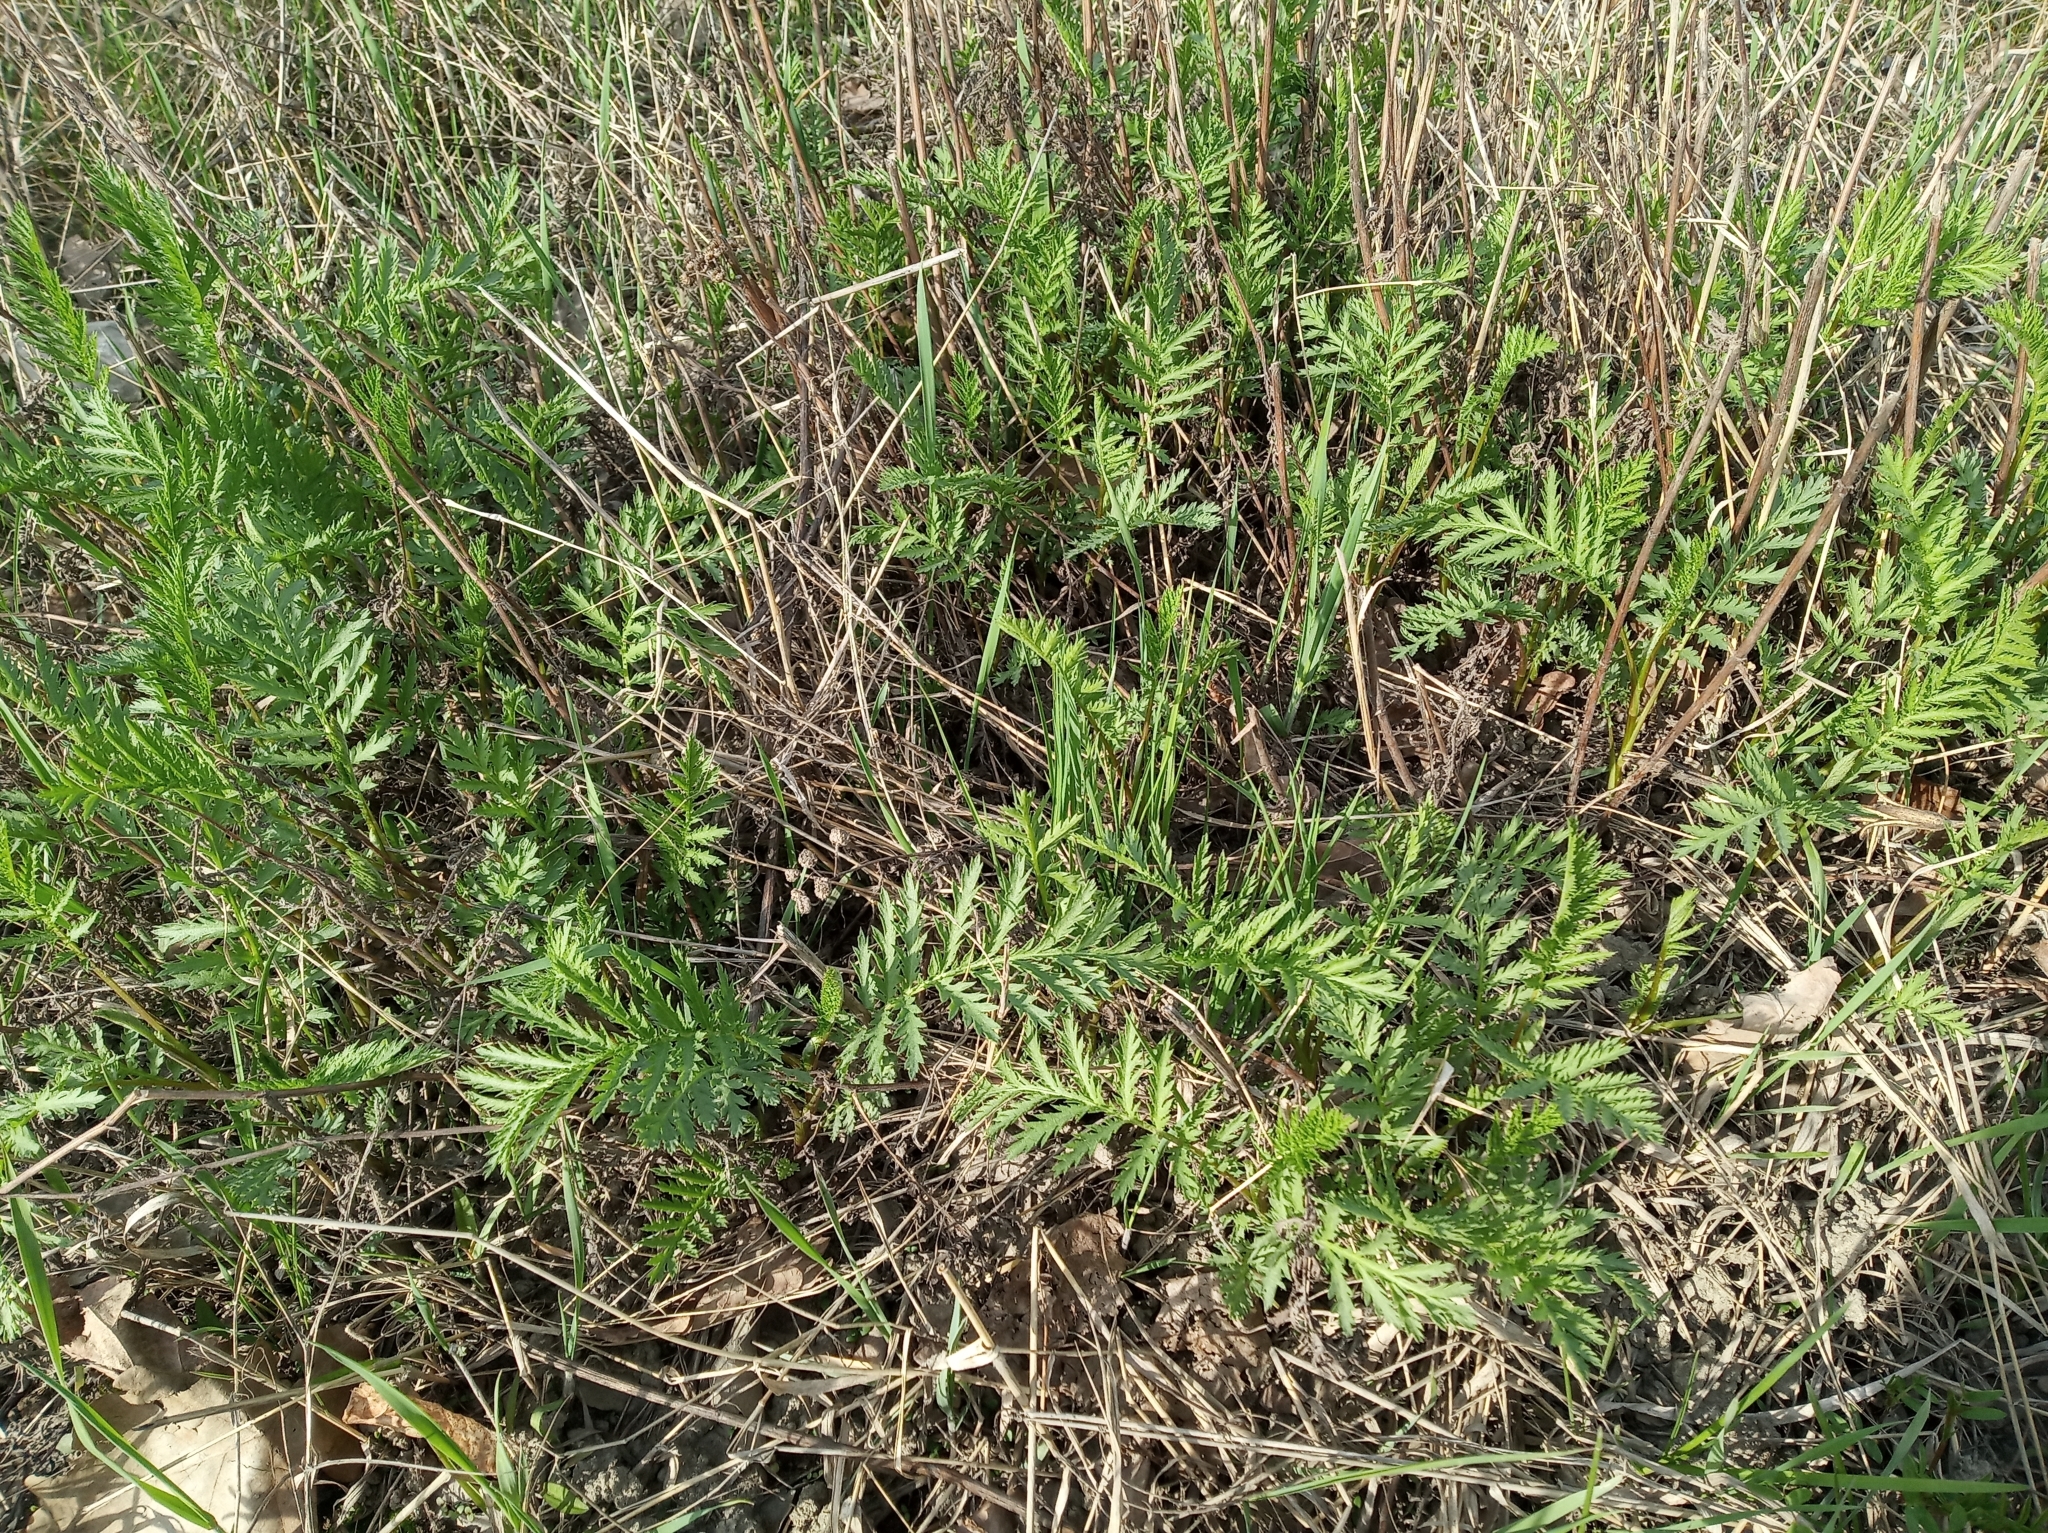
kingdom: Plantae
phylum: Tracheophyta
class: Magnoliopsida
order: Asterales
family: Asteraceae
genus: Tanacetum
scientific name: Tanacetum vulgare
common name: Common tansy
